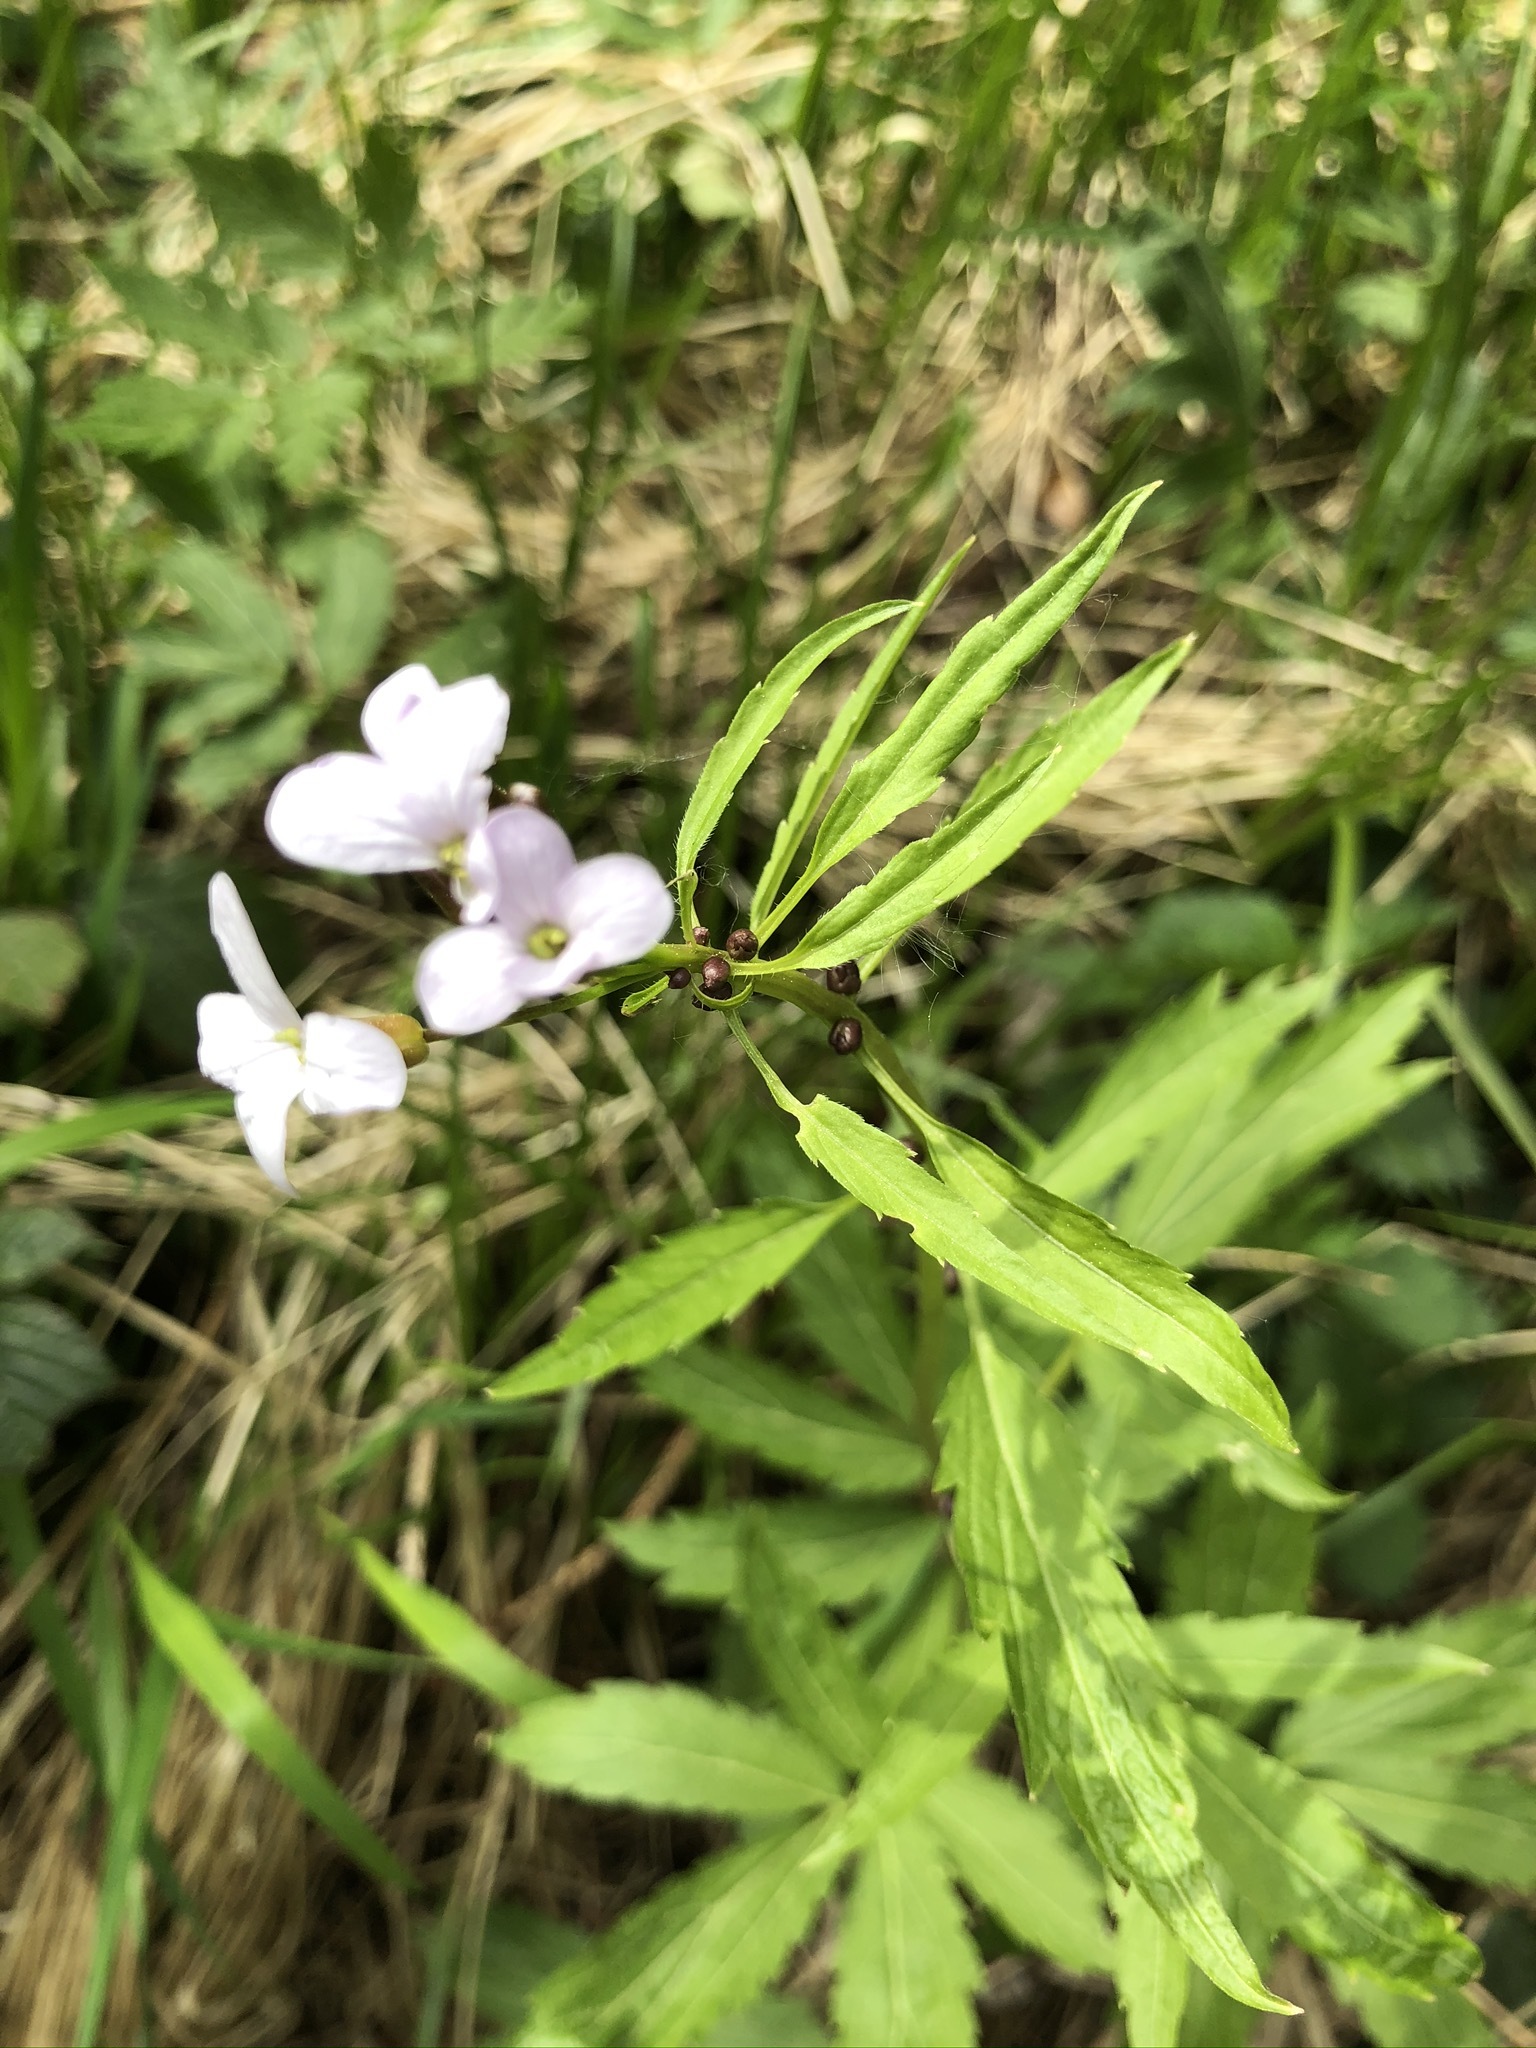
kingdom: Plantae
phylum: Tracheophyta
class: Magnoliopsida
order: Brassicales
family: Brassicaceae
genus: Cardamine
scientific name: Cardamine bulbifera
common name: Coralroot bittercress
